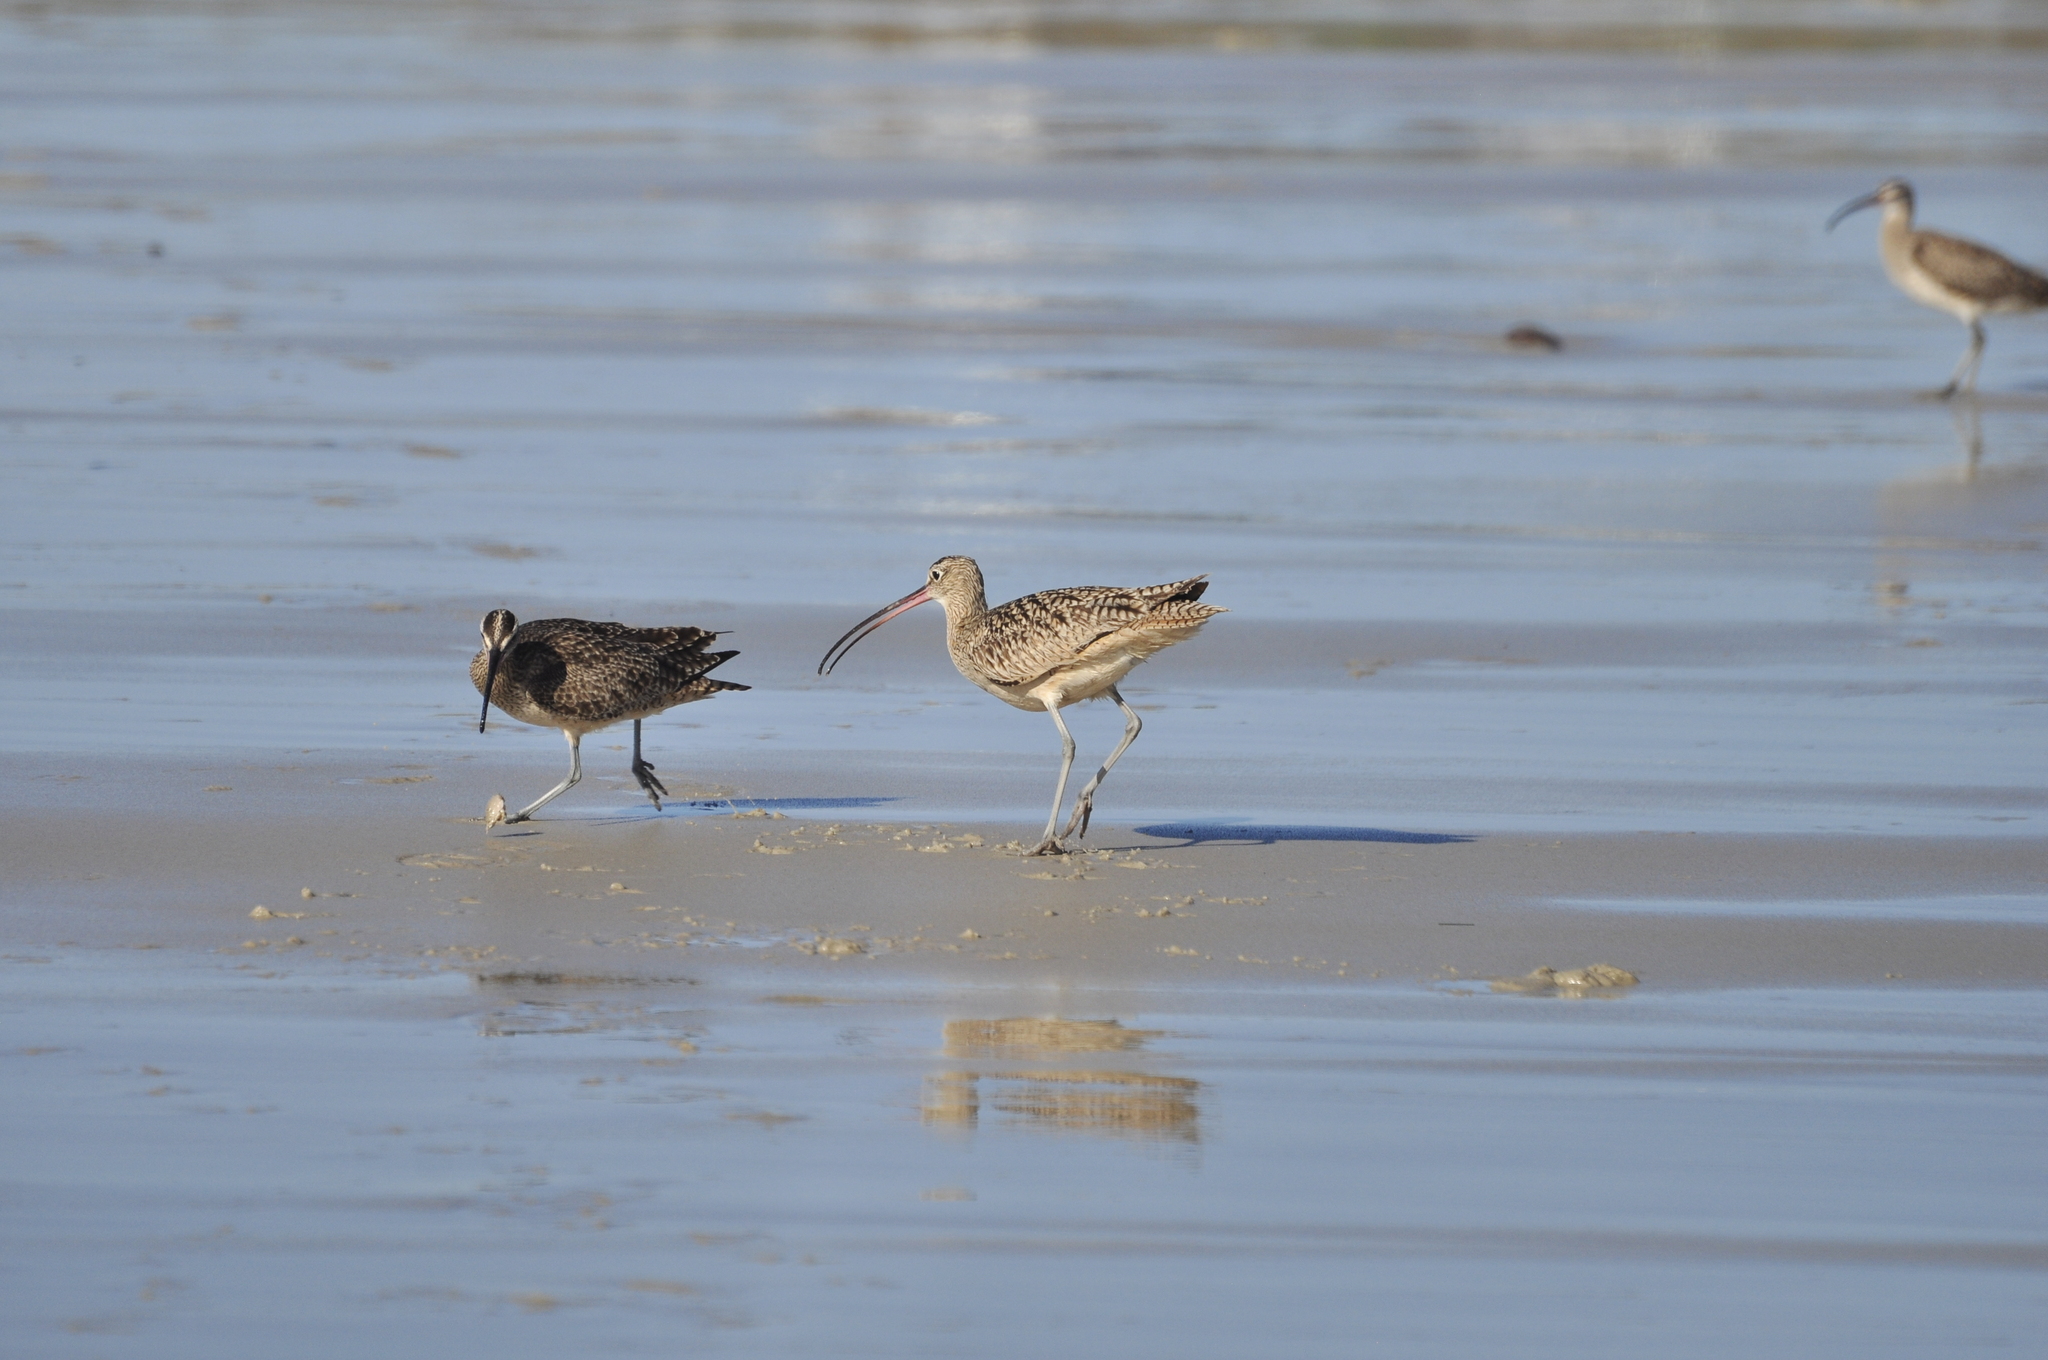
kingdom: Animalia
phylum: Chordata
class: Aves
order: Charadriiformes
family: Scolopacidae
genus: Numenius
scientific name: Numenius americanus
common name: Long-billed curlew
